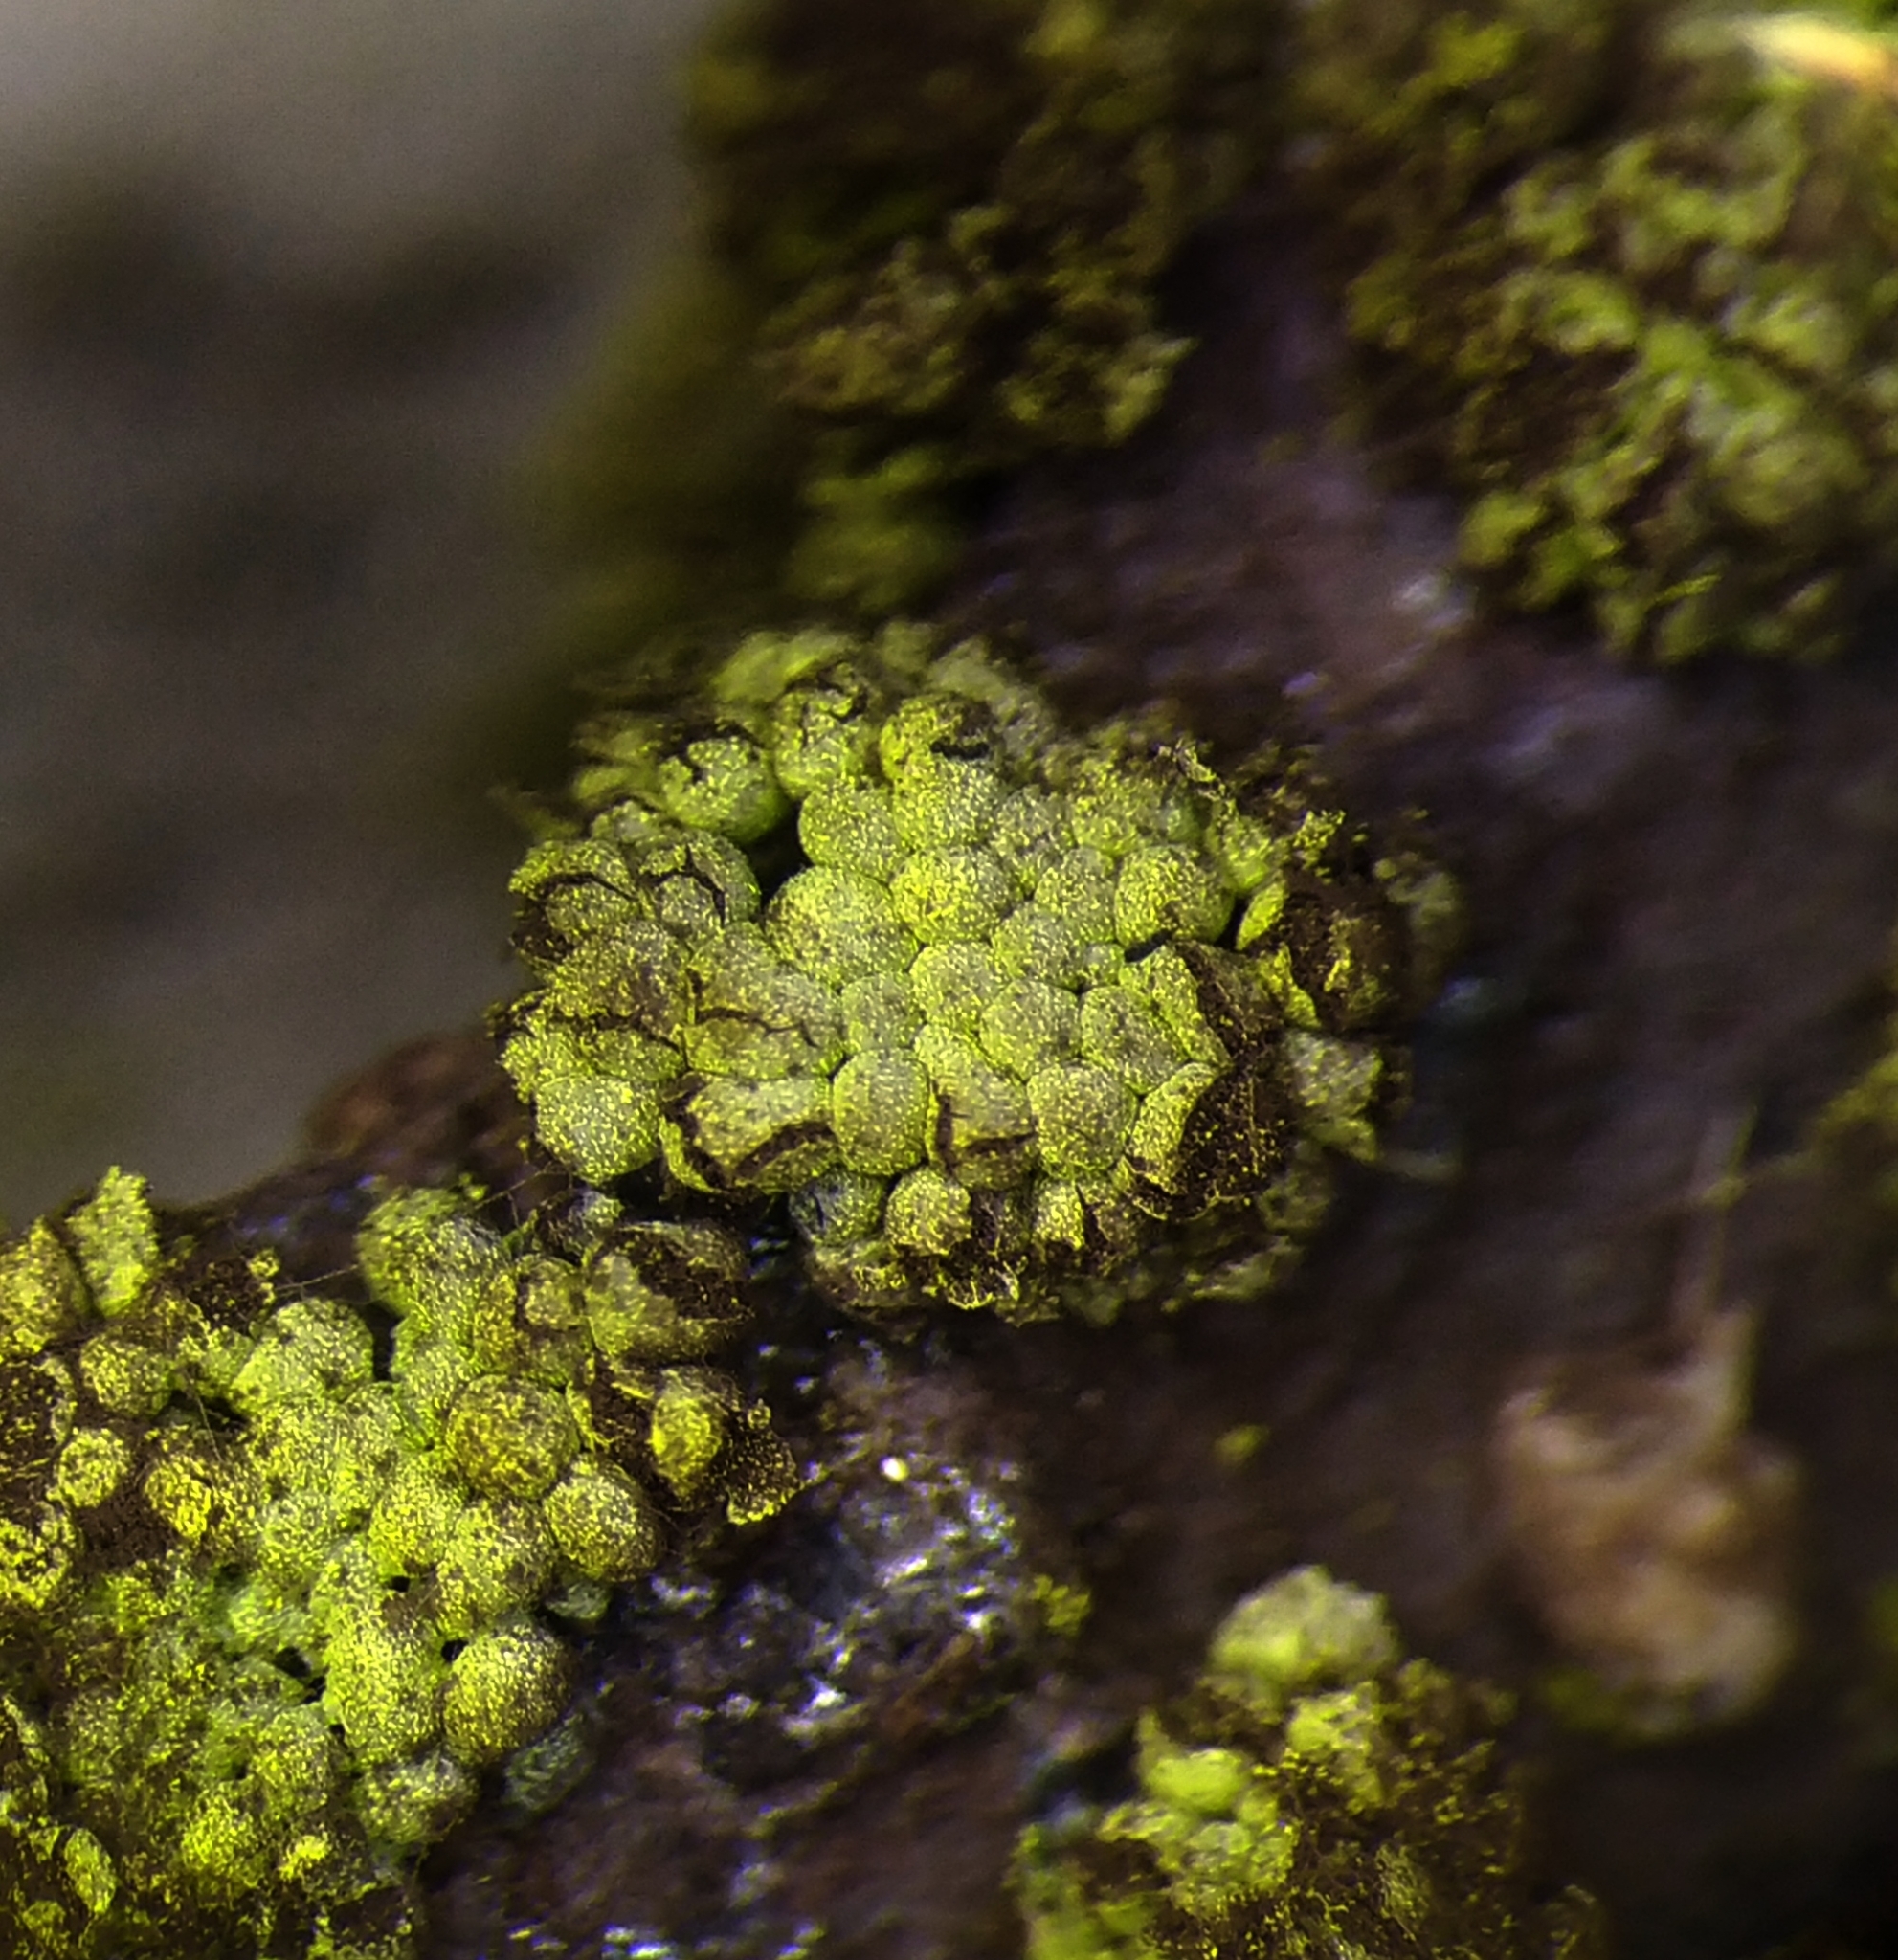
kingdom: Protozoa
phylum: Mycetozoa
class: Myxomycetes
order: Physarales
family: Physaraceae
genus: Physarum
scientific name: Physarum virescens
